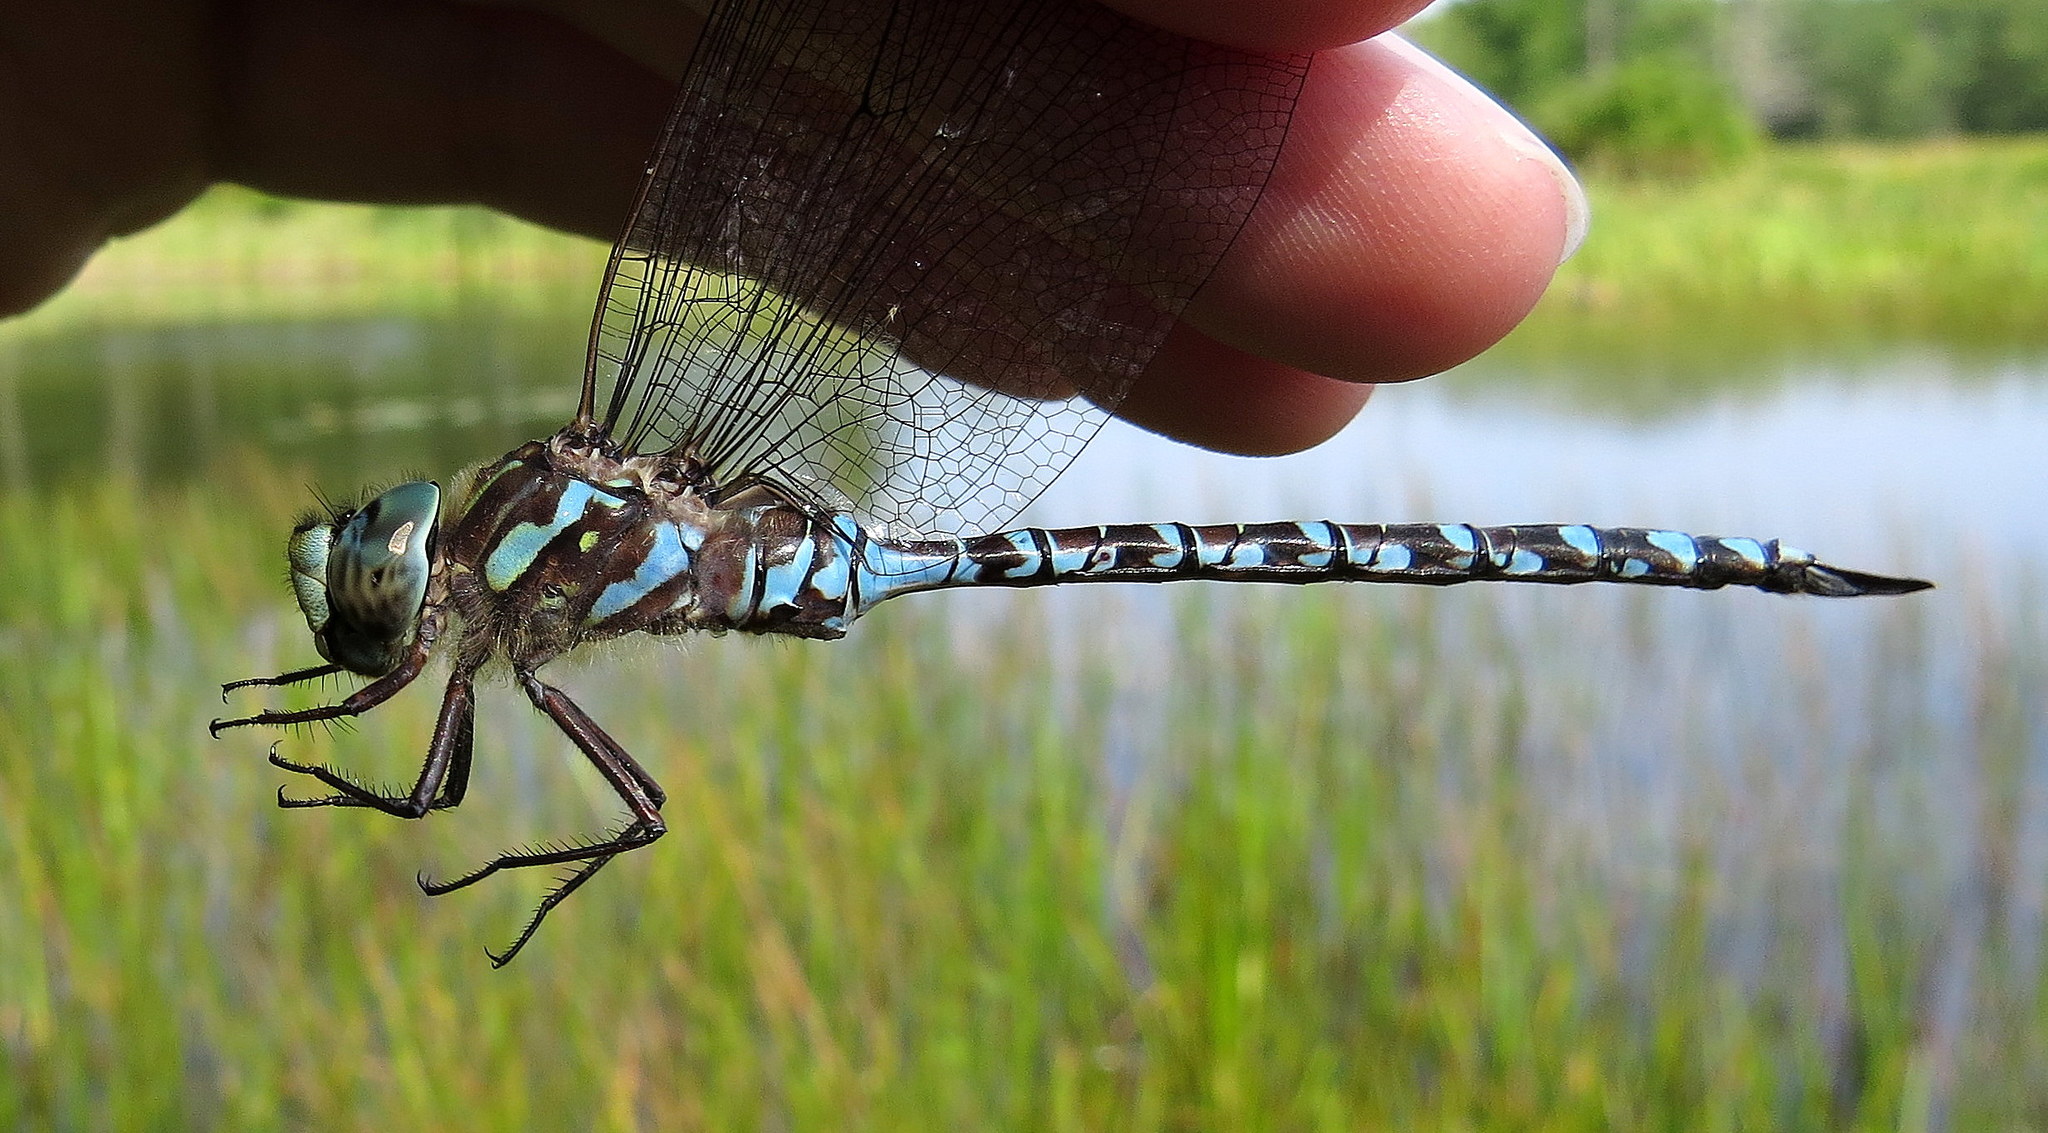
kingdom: Animalia
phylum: Arthropoda
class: Insecta
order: Odonata
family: Aeshnidae
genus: Aeshna
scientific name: Aeshna canadensis
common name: Canada darner
